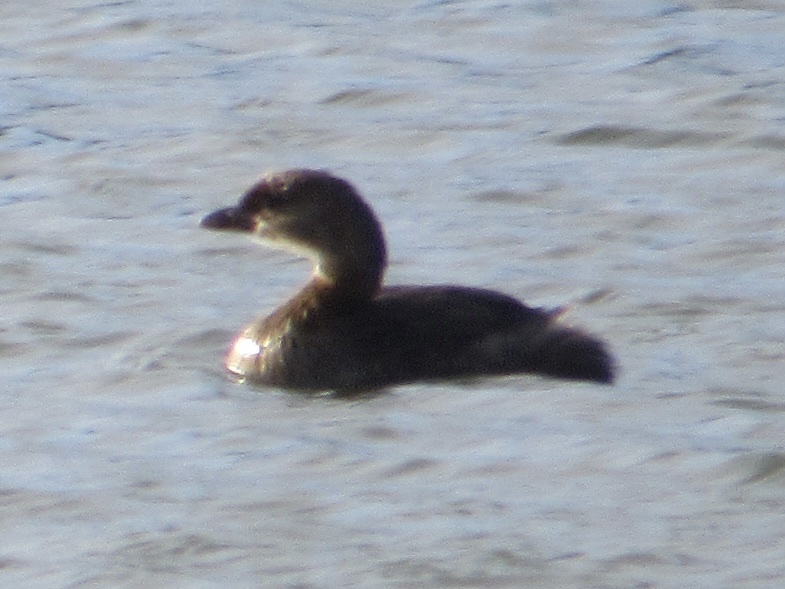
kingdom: Animalia
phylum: Chordata
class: Aves
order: Podicipediformes
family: Podicipedidae
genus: Podilymbus
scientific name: Podilymbus podiceps
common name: Pied-billed grebe
